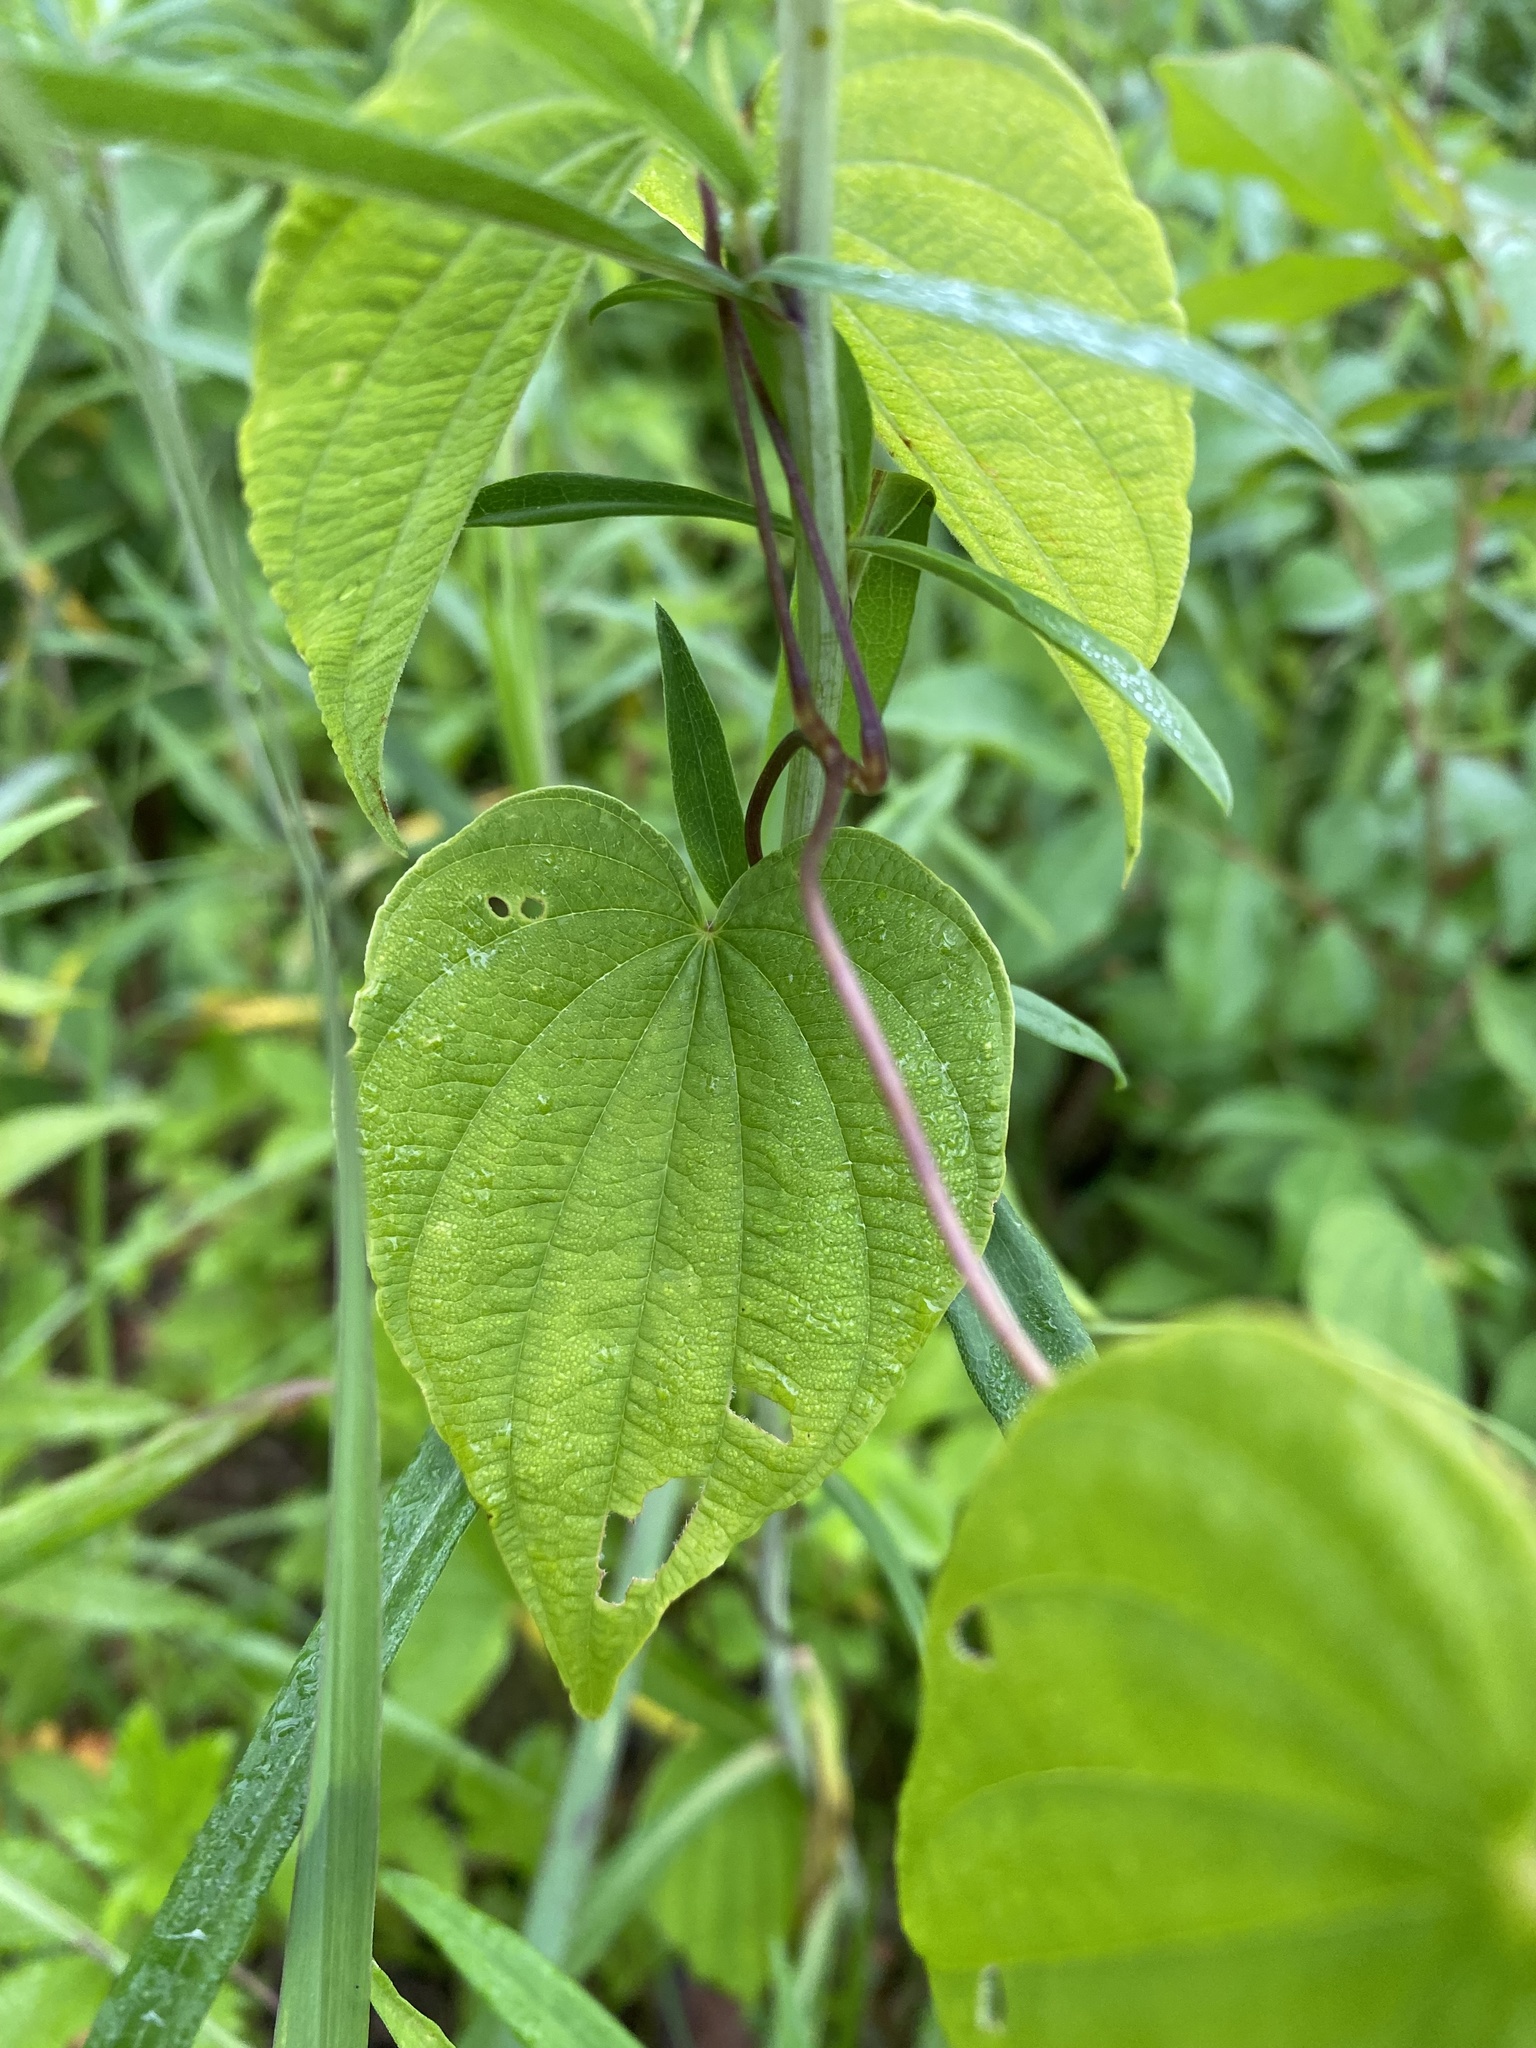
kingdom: Plantae
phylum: Tracheophyta
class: Liliopsida
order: Dioscoreales
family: Dioscoreaceae
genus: Dioscorea
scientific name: Dioscorea villosa
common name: Wild yam
